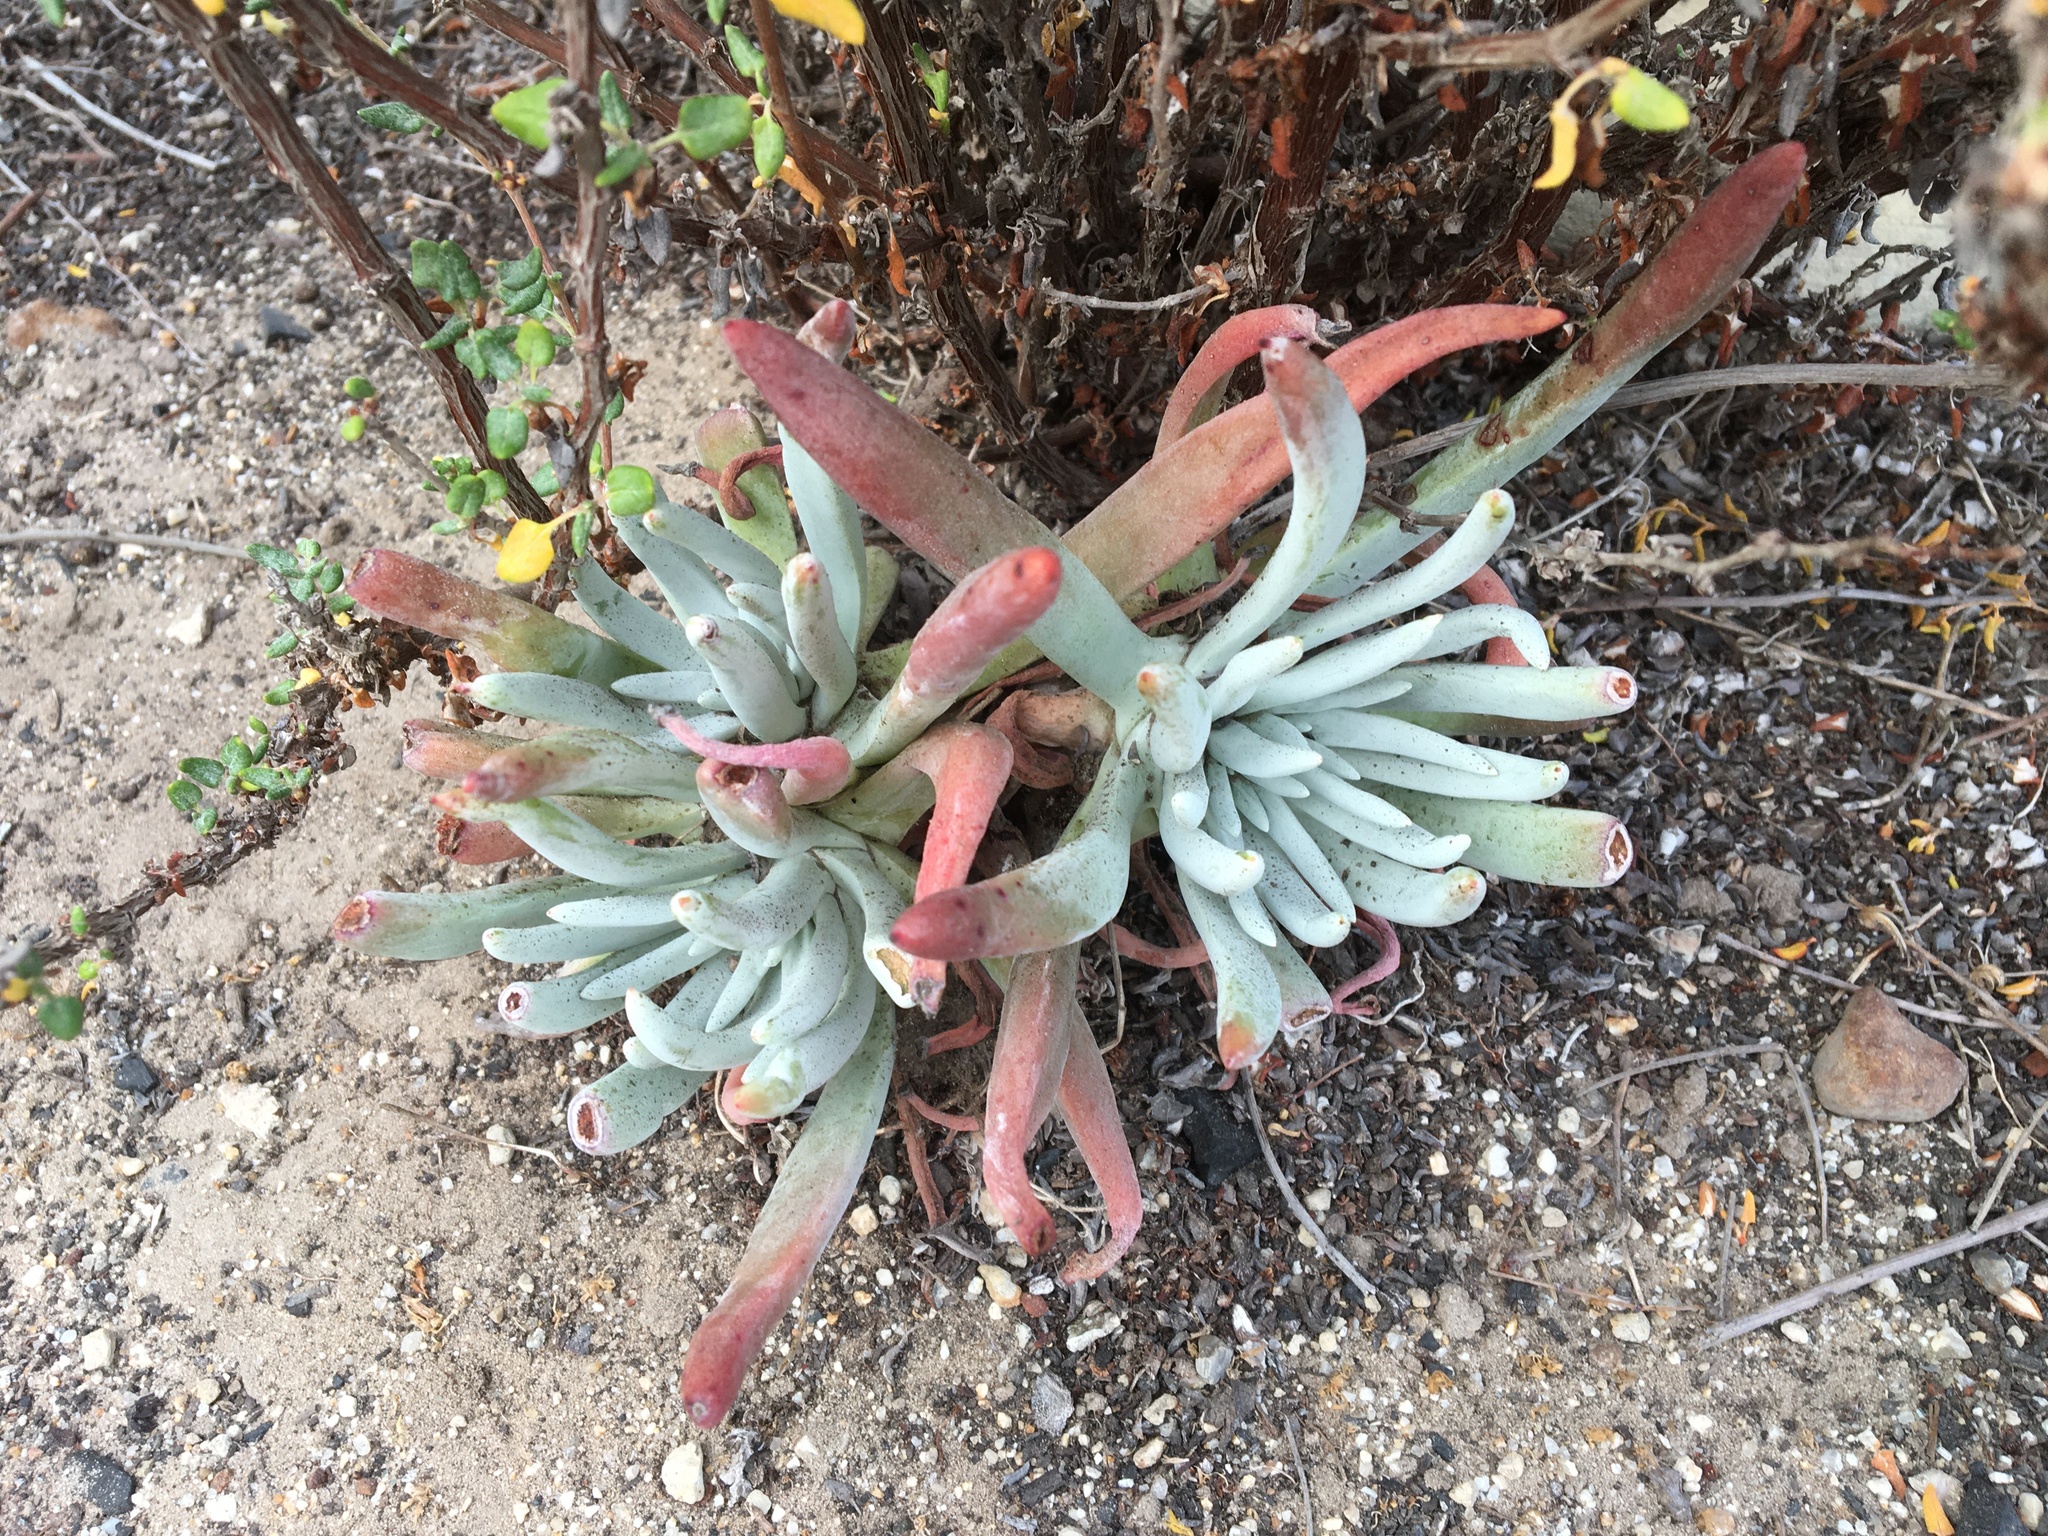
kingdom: Plantae
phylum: Tracheophyta
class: Magnoliopsida
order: Saxifragales
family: Crassulaceae
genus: Dudleya
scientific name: Dudleya caespitosa
